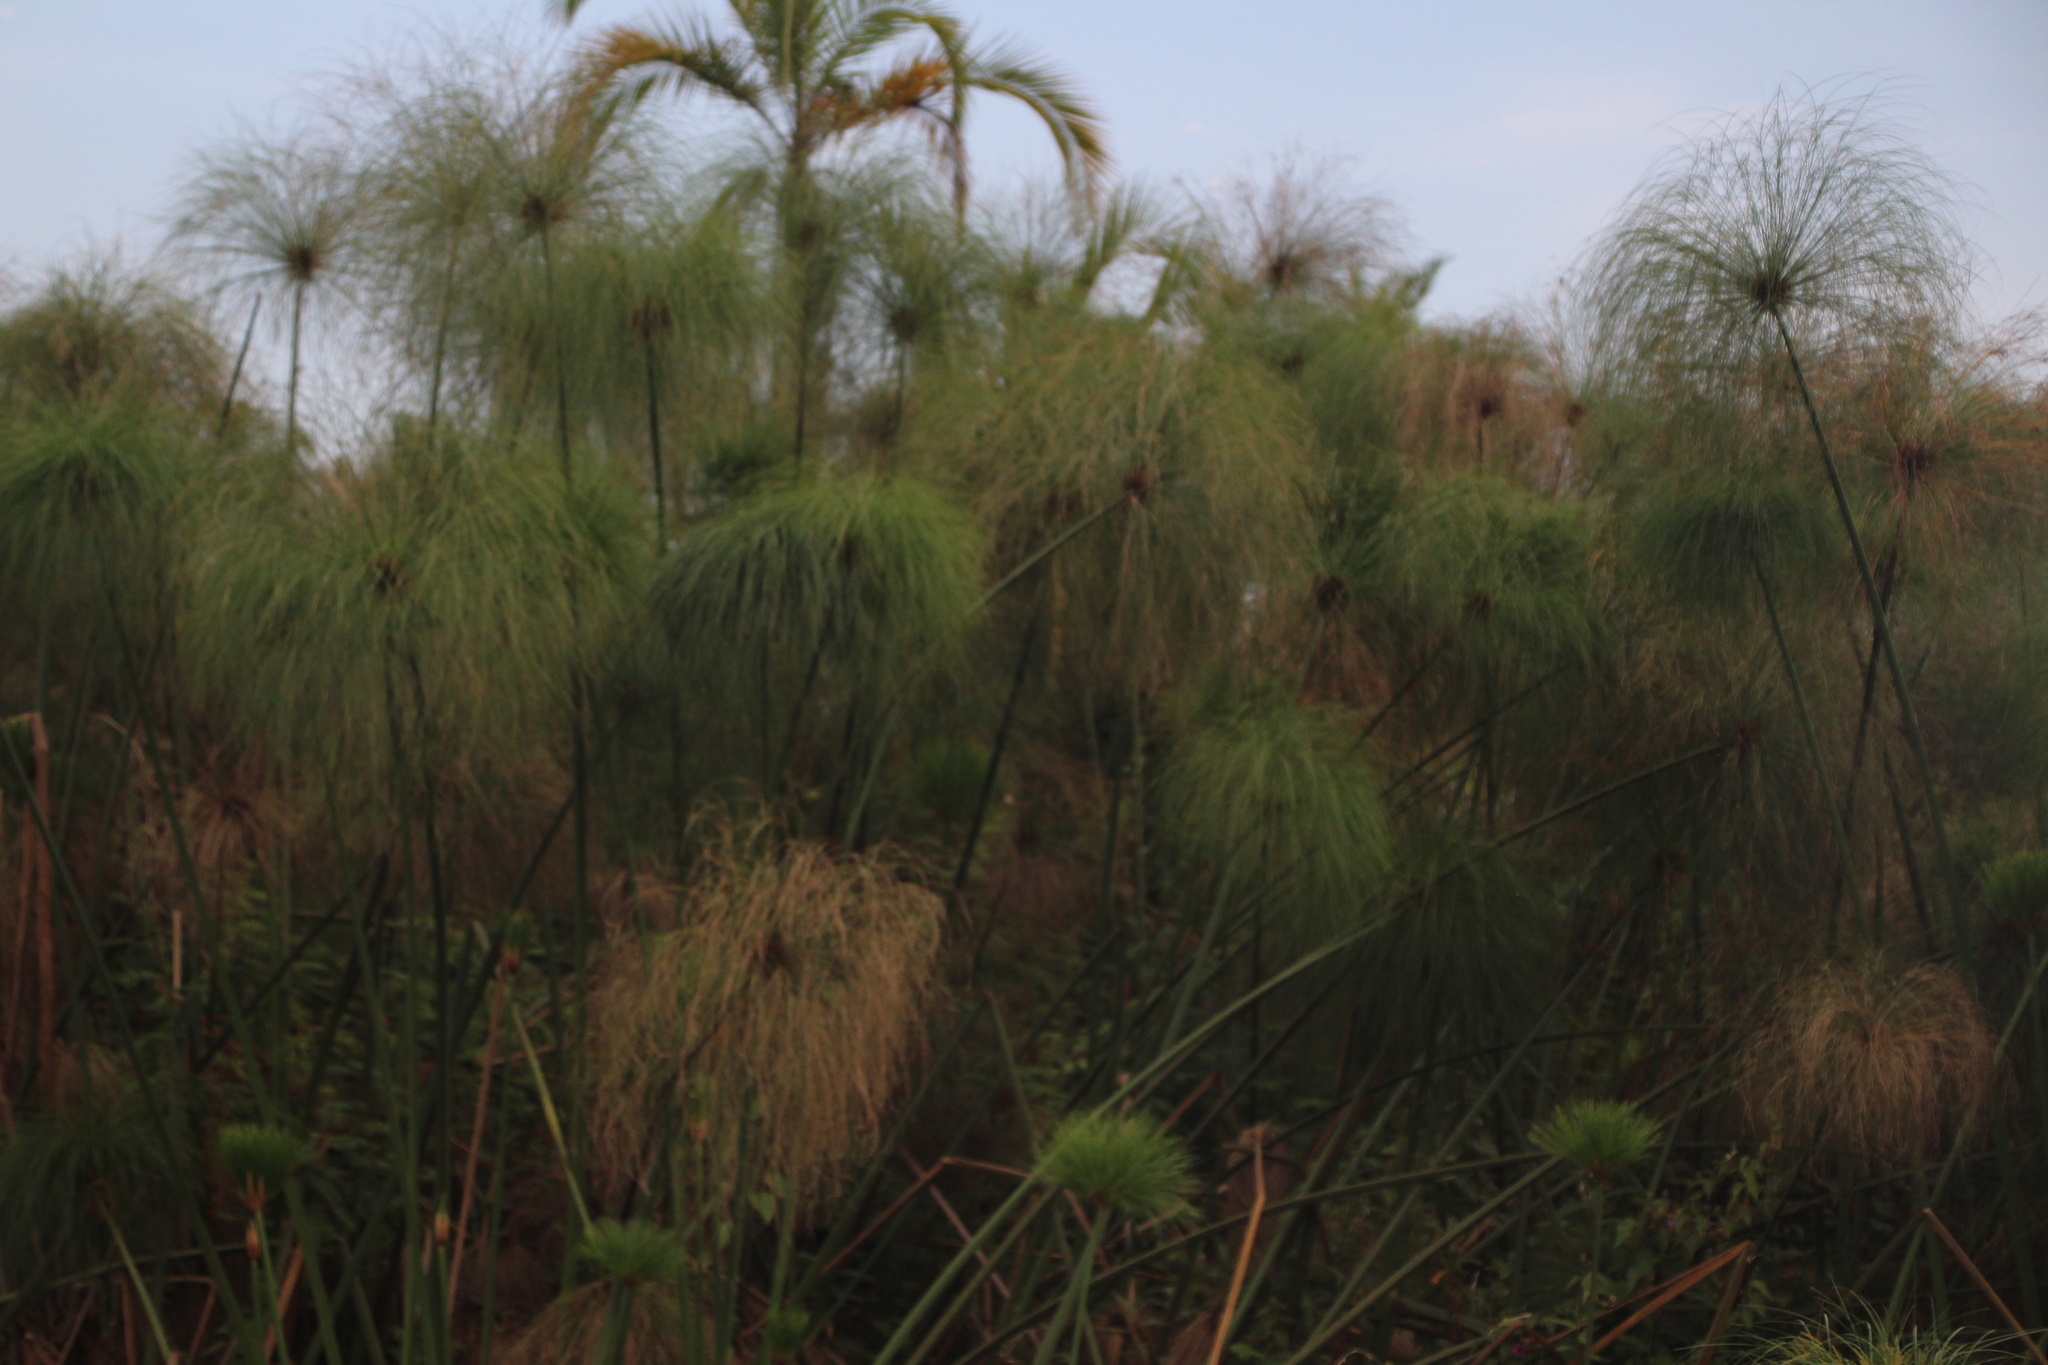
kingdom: Plantae
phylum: Tracheophyta
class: Liliopsida
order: Poales
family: Cyperaceae
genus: Cyperus
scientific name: Cyperus papyrus
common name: Papyrus
